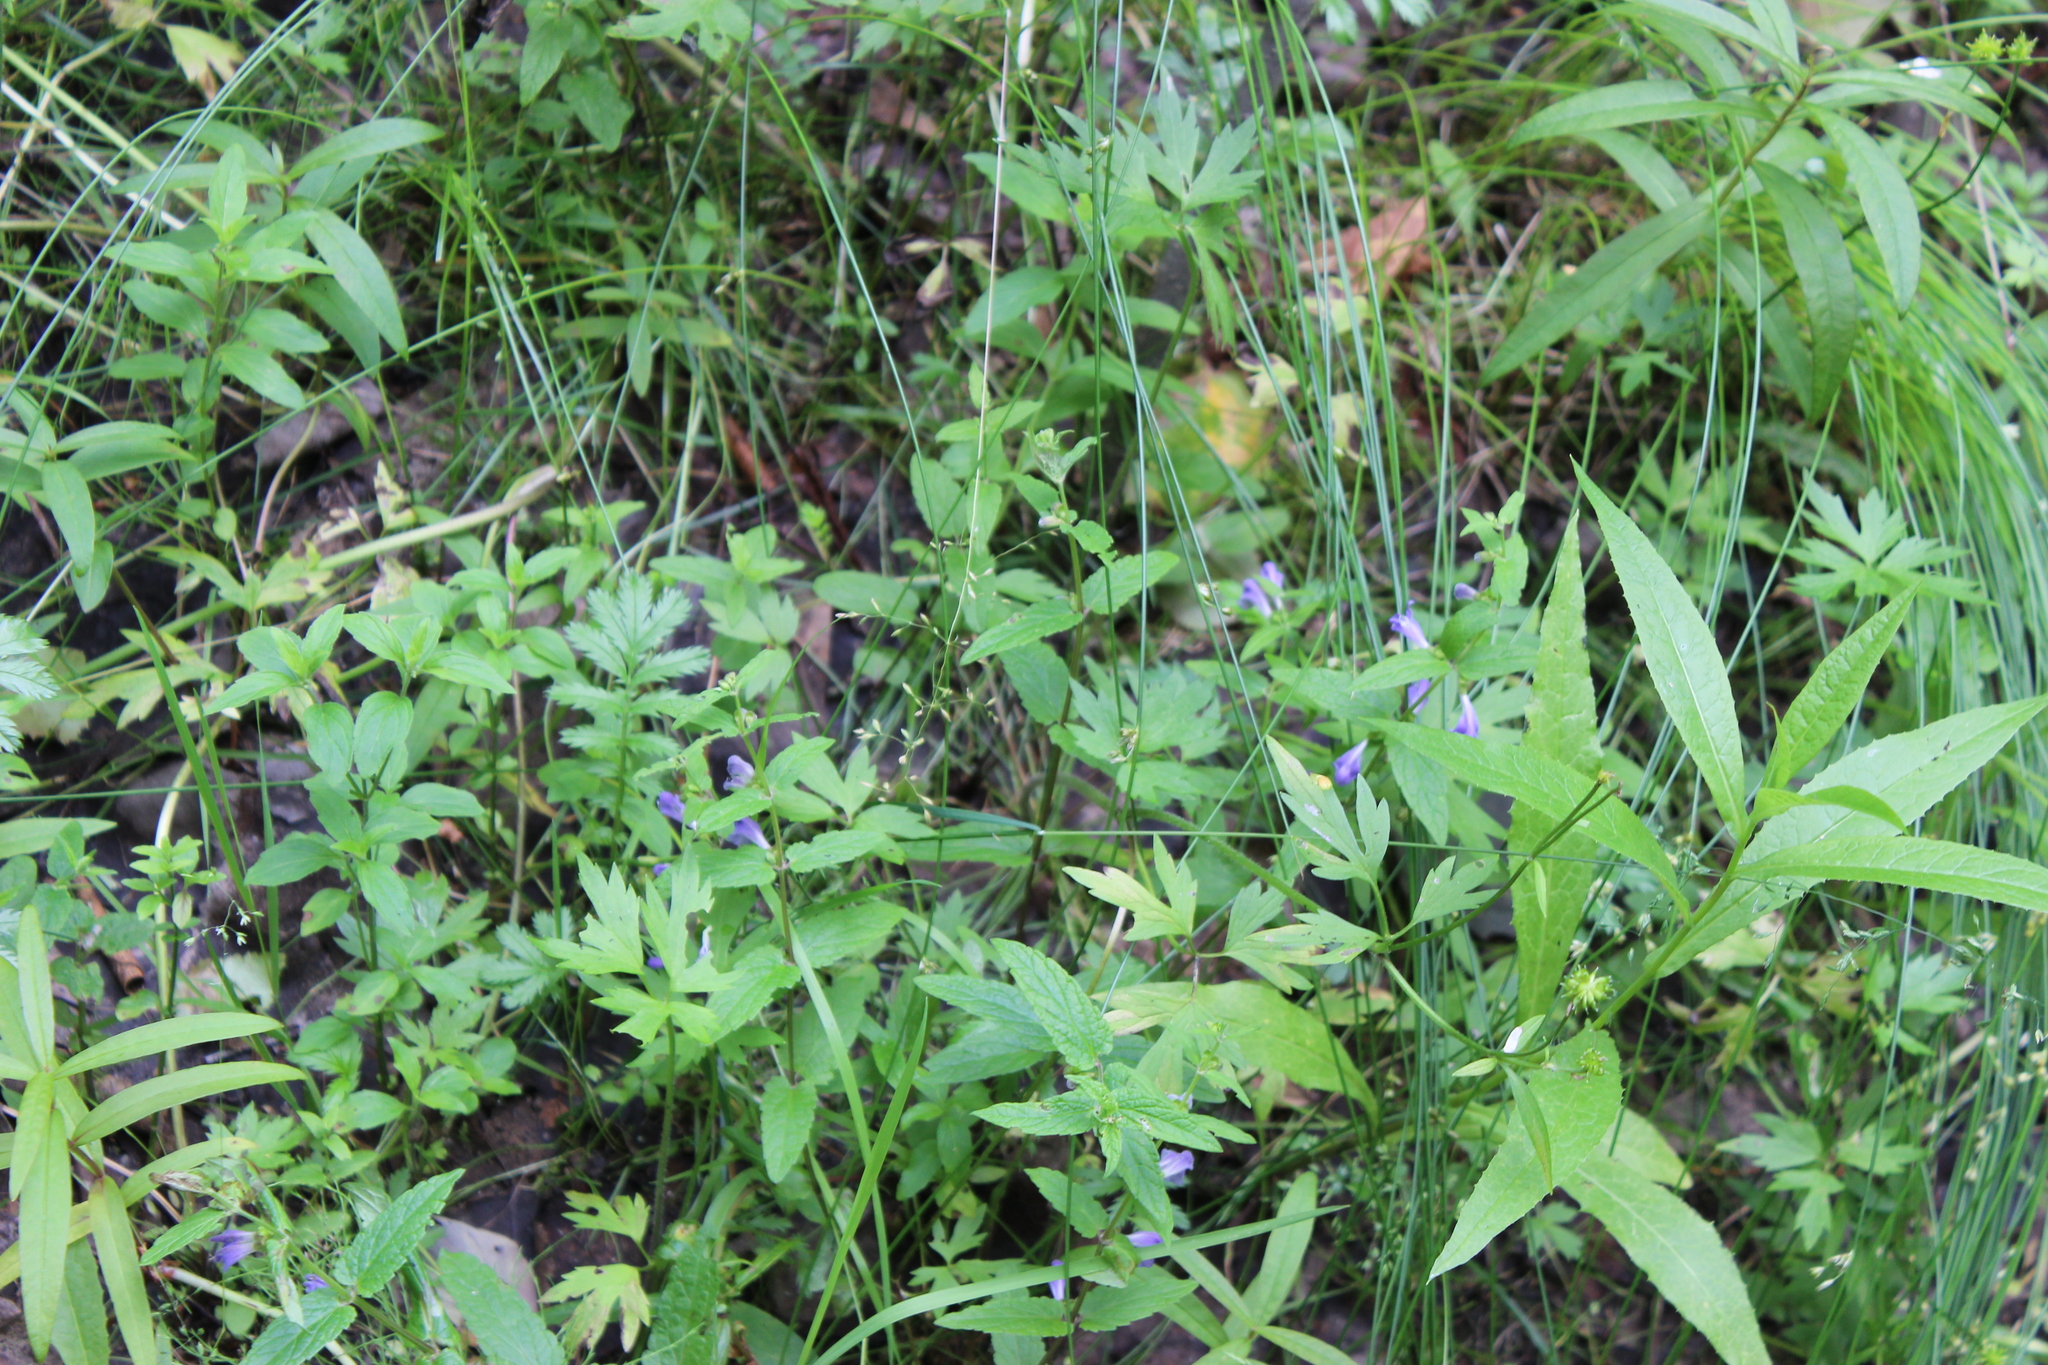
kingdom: Plantae
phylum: Tracheophyta
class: Magnoliopsida
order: Lamiales
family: Lamiaceae
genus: Scutellaria
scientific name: Scutellaria galericulata
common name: Skullcap
